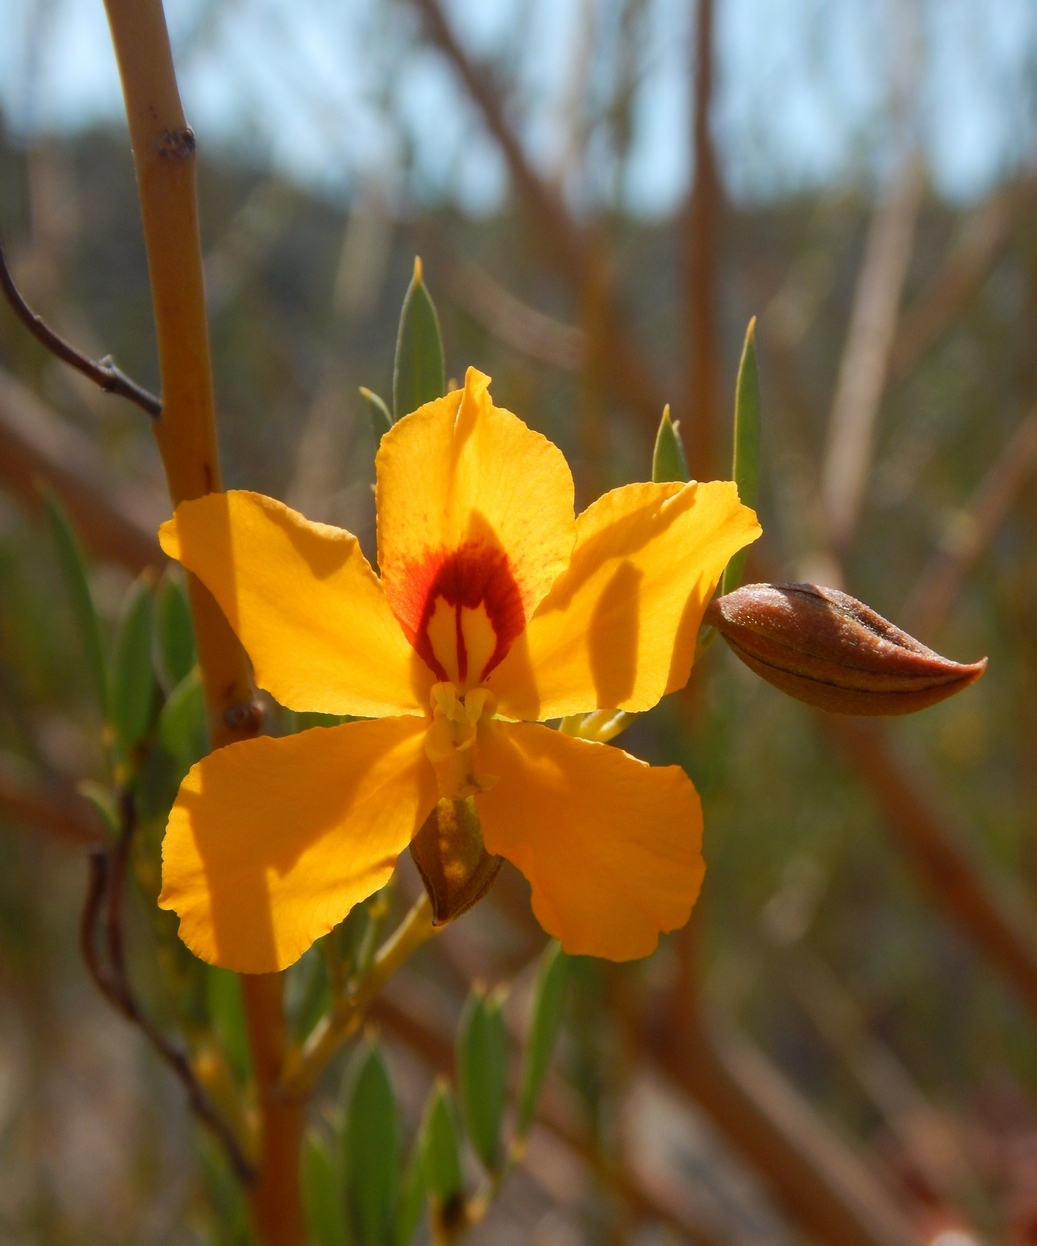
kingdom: Plantae
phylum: Tracheophyta
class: Magnoliopsida
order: Fabales
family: Fabaceae
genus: Petalostylis
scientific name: Petalostylis labicheoides
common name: Butterfly bush
